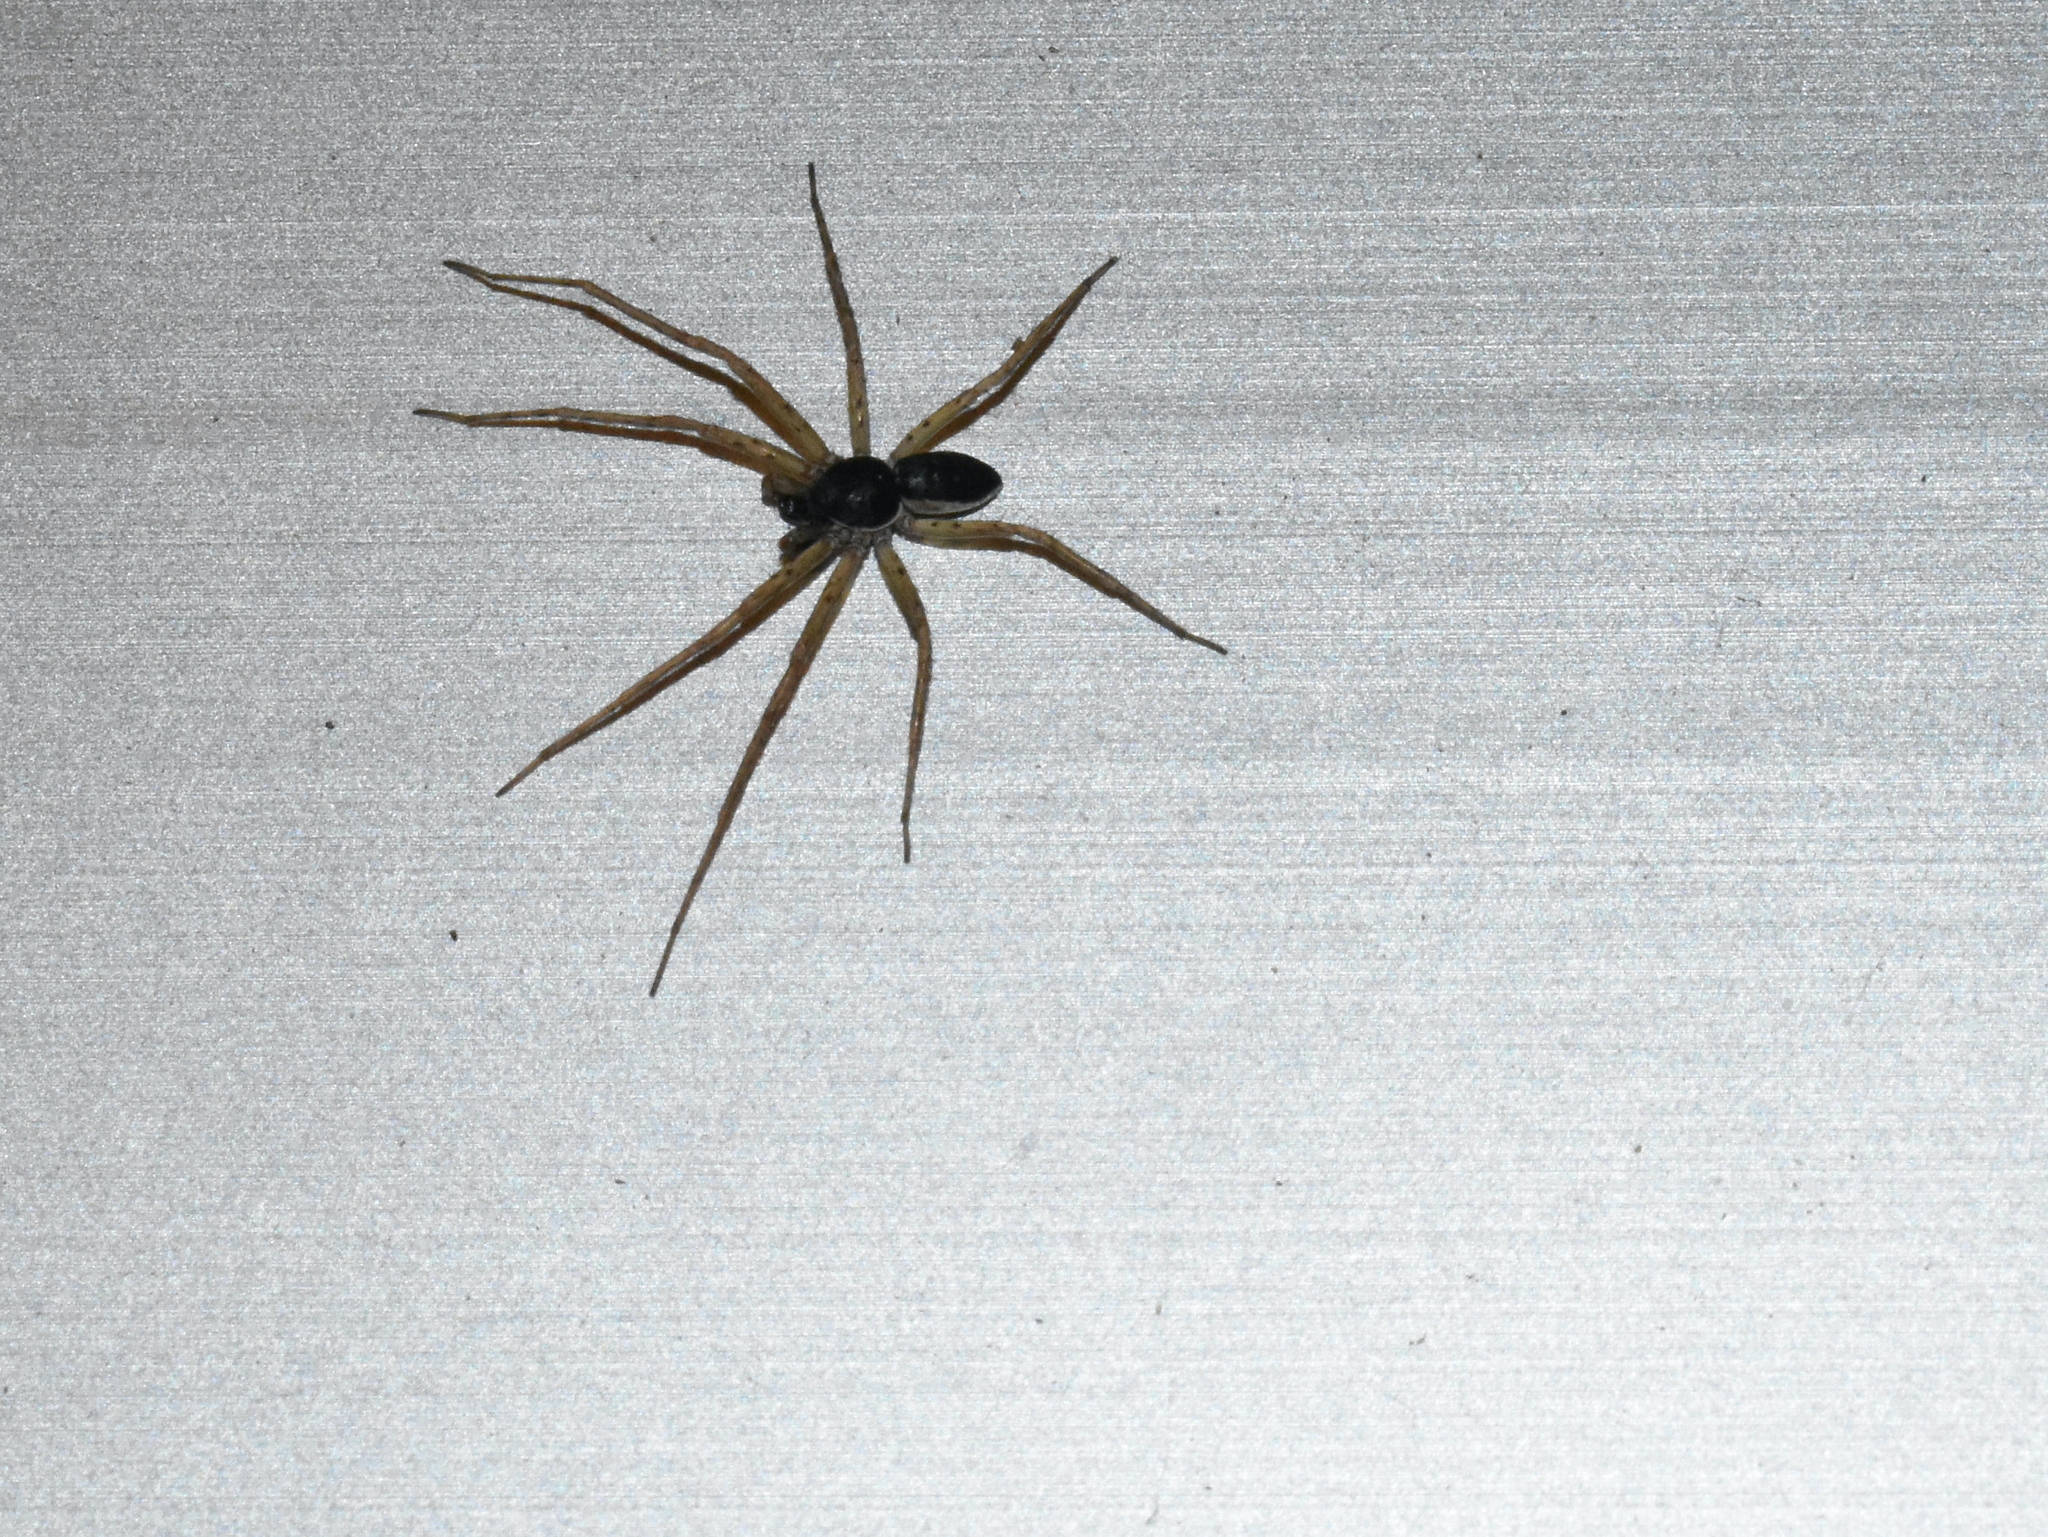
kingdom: Animalia
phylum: Arthropoda
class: Arachnida
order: Araneae
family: Philodromidae
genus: Philodromus
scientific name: Philodromus dispar
